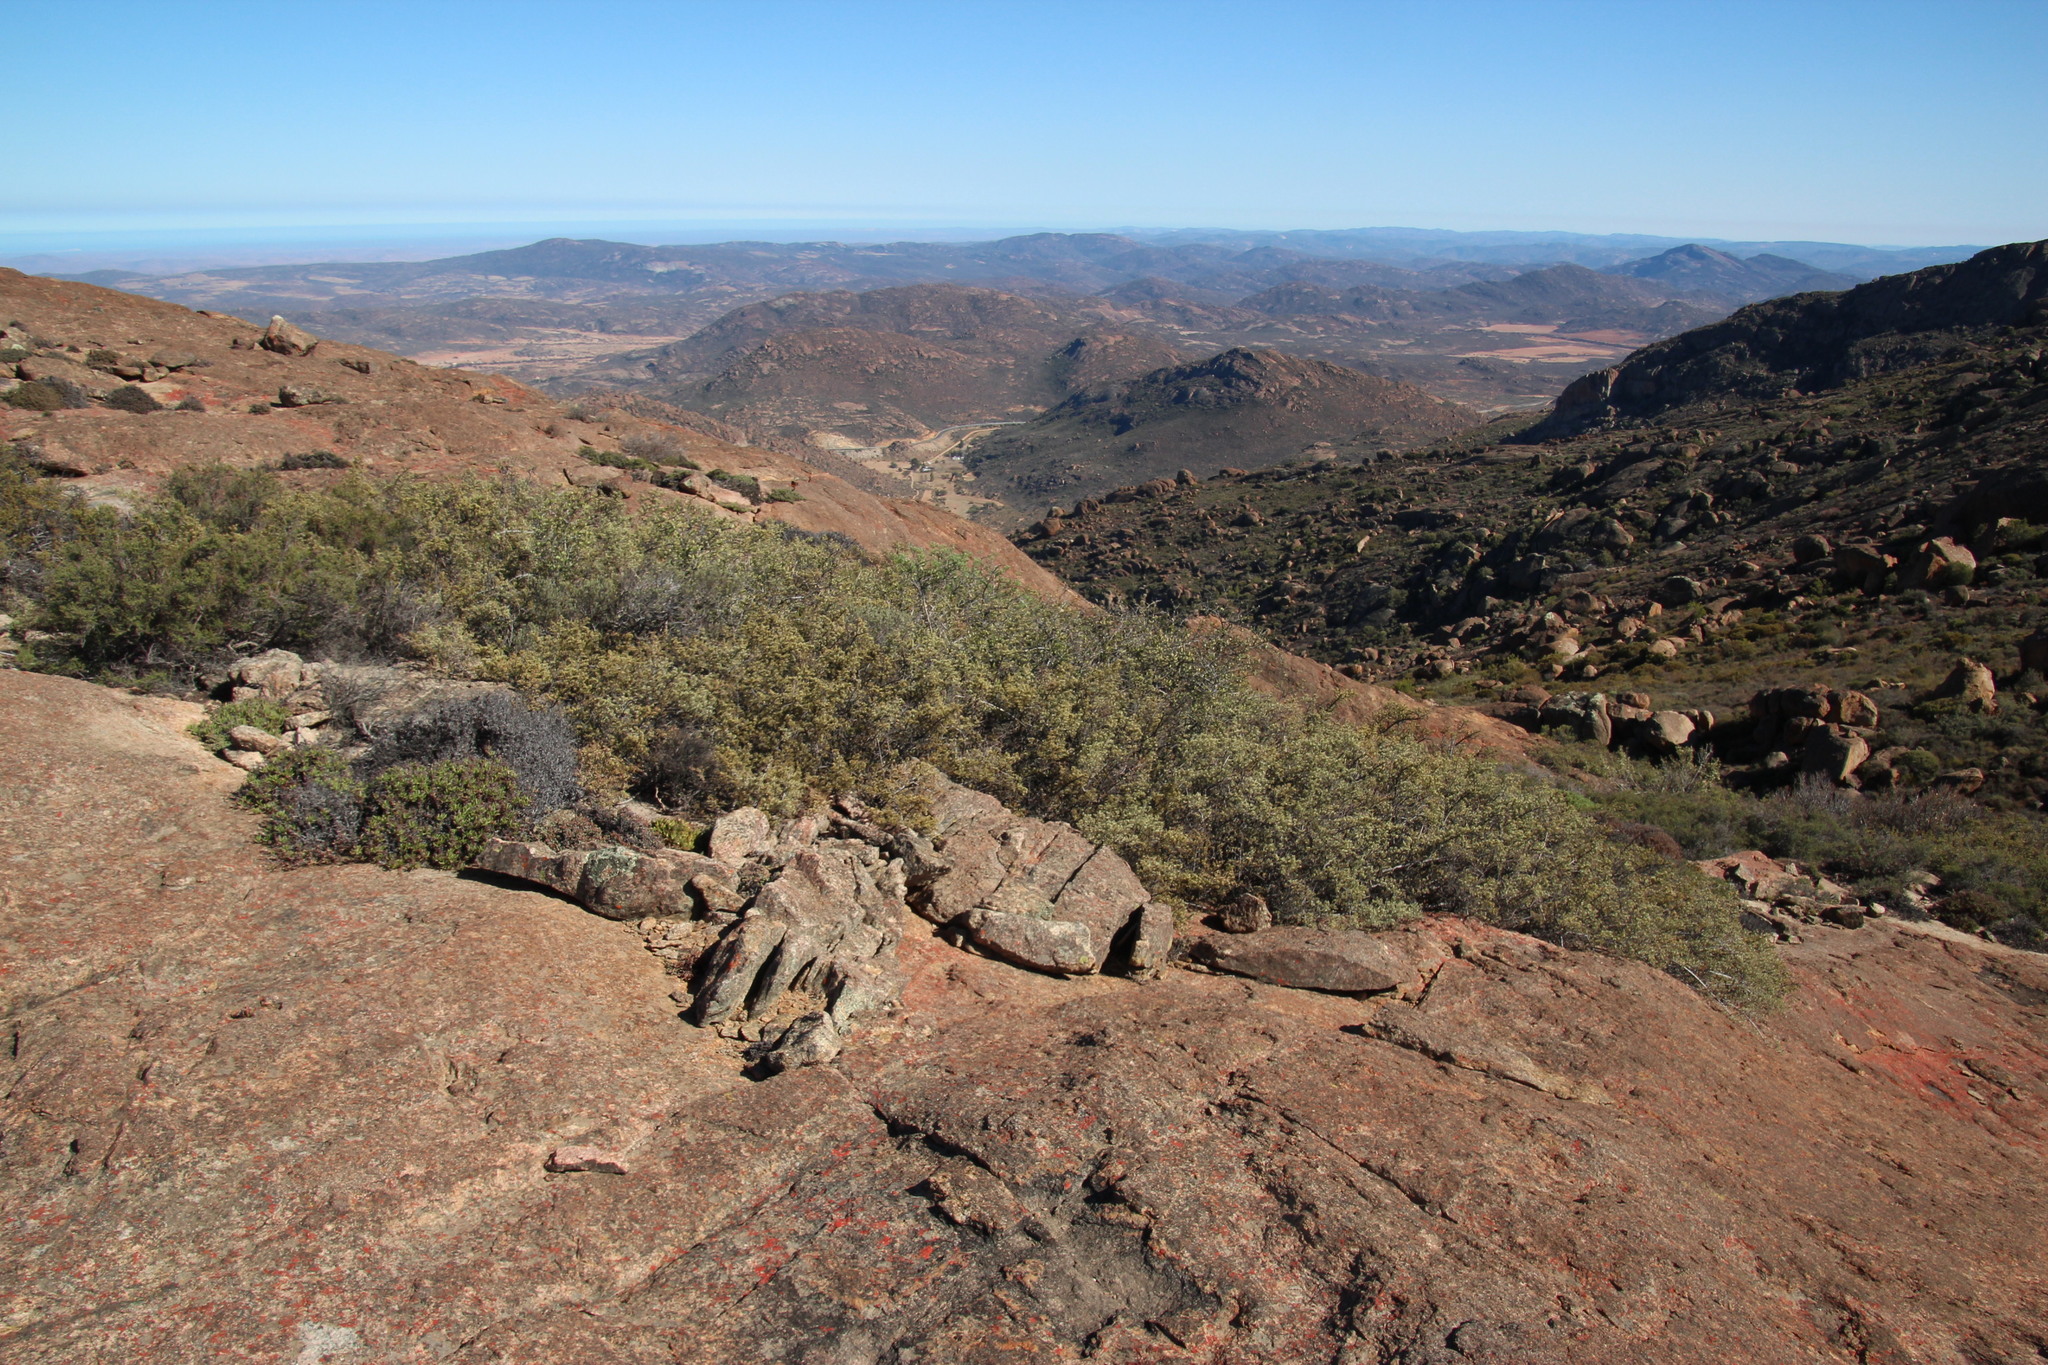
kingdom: Plantae
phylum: Tracheophyta
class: Magnoliopsida
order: Sapindales
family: Anacardiaceae
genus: Searsia
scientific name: Searsia horrida
